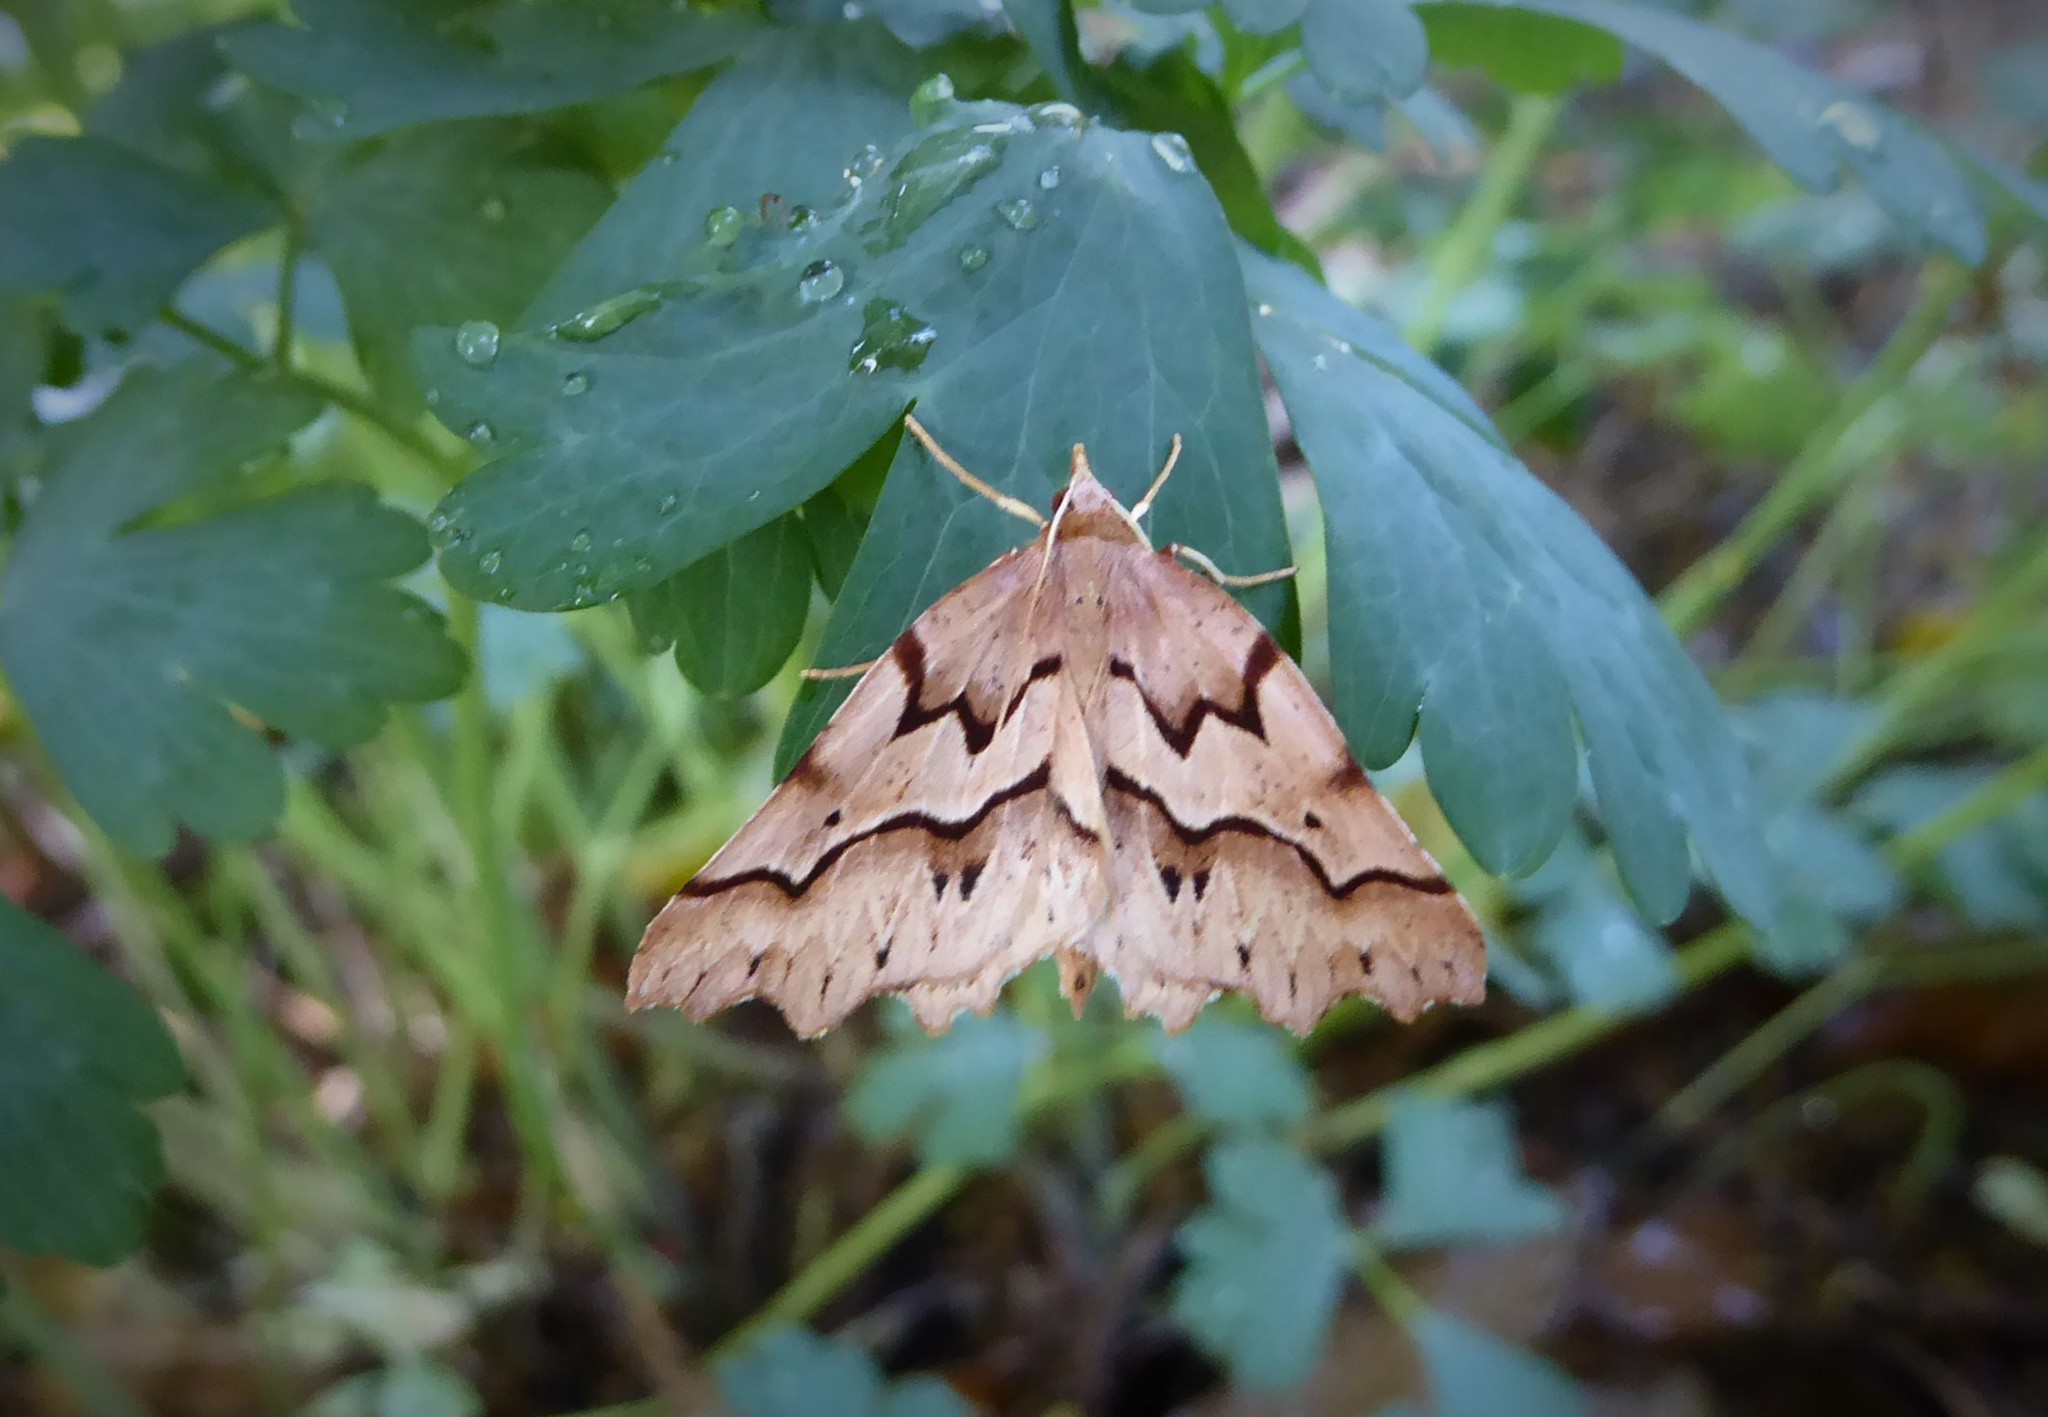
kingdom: Animalia
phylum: Arthropoda
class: Insecta
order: Lepidoptera
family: Geometridae
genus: Ischalis
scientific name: Ischalis fortinata
